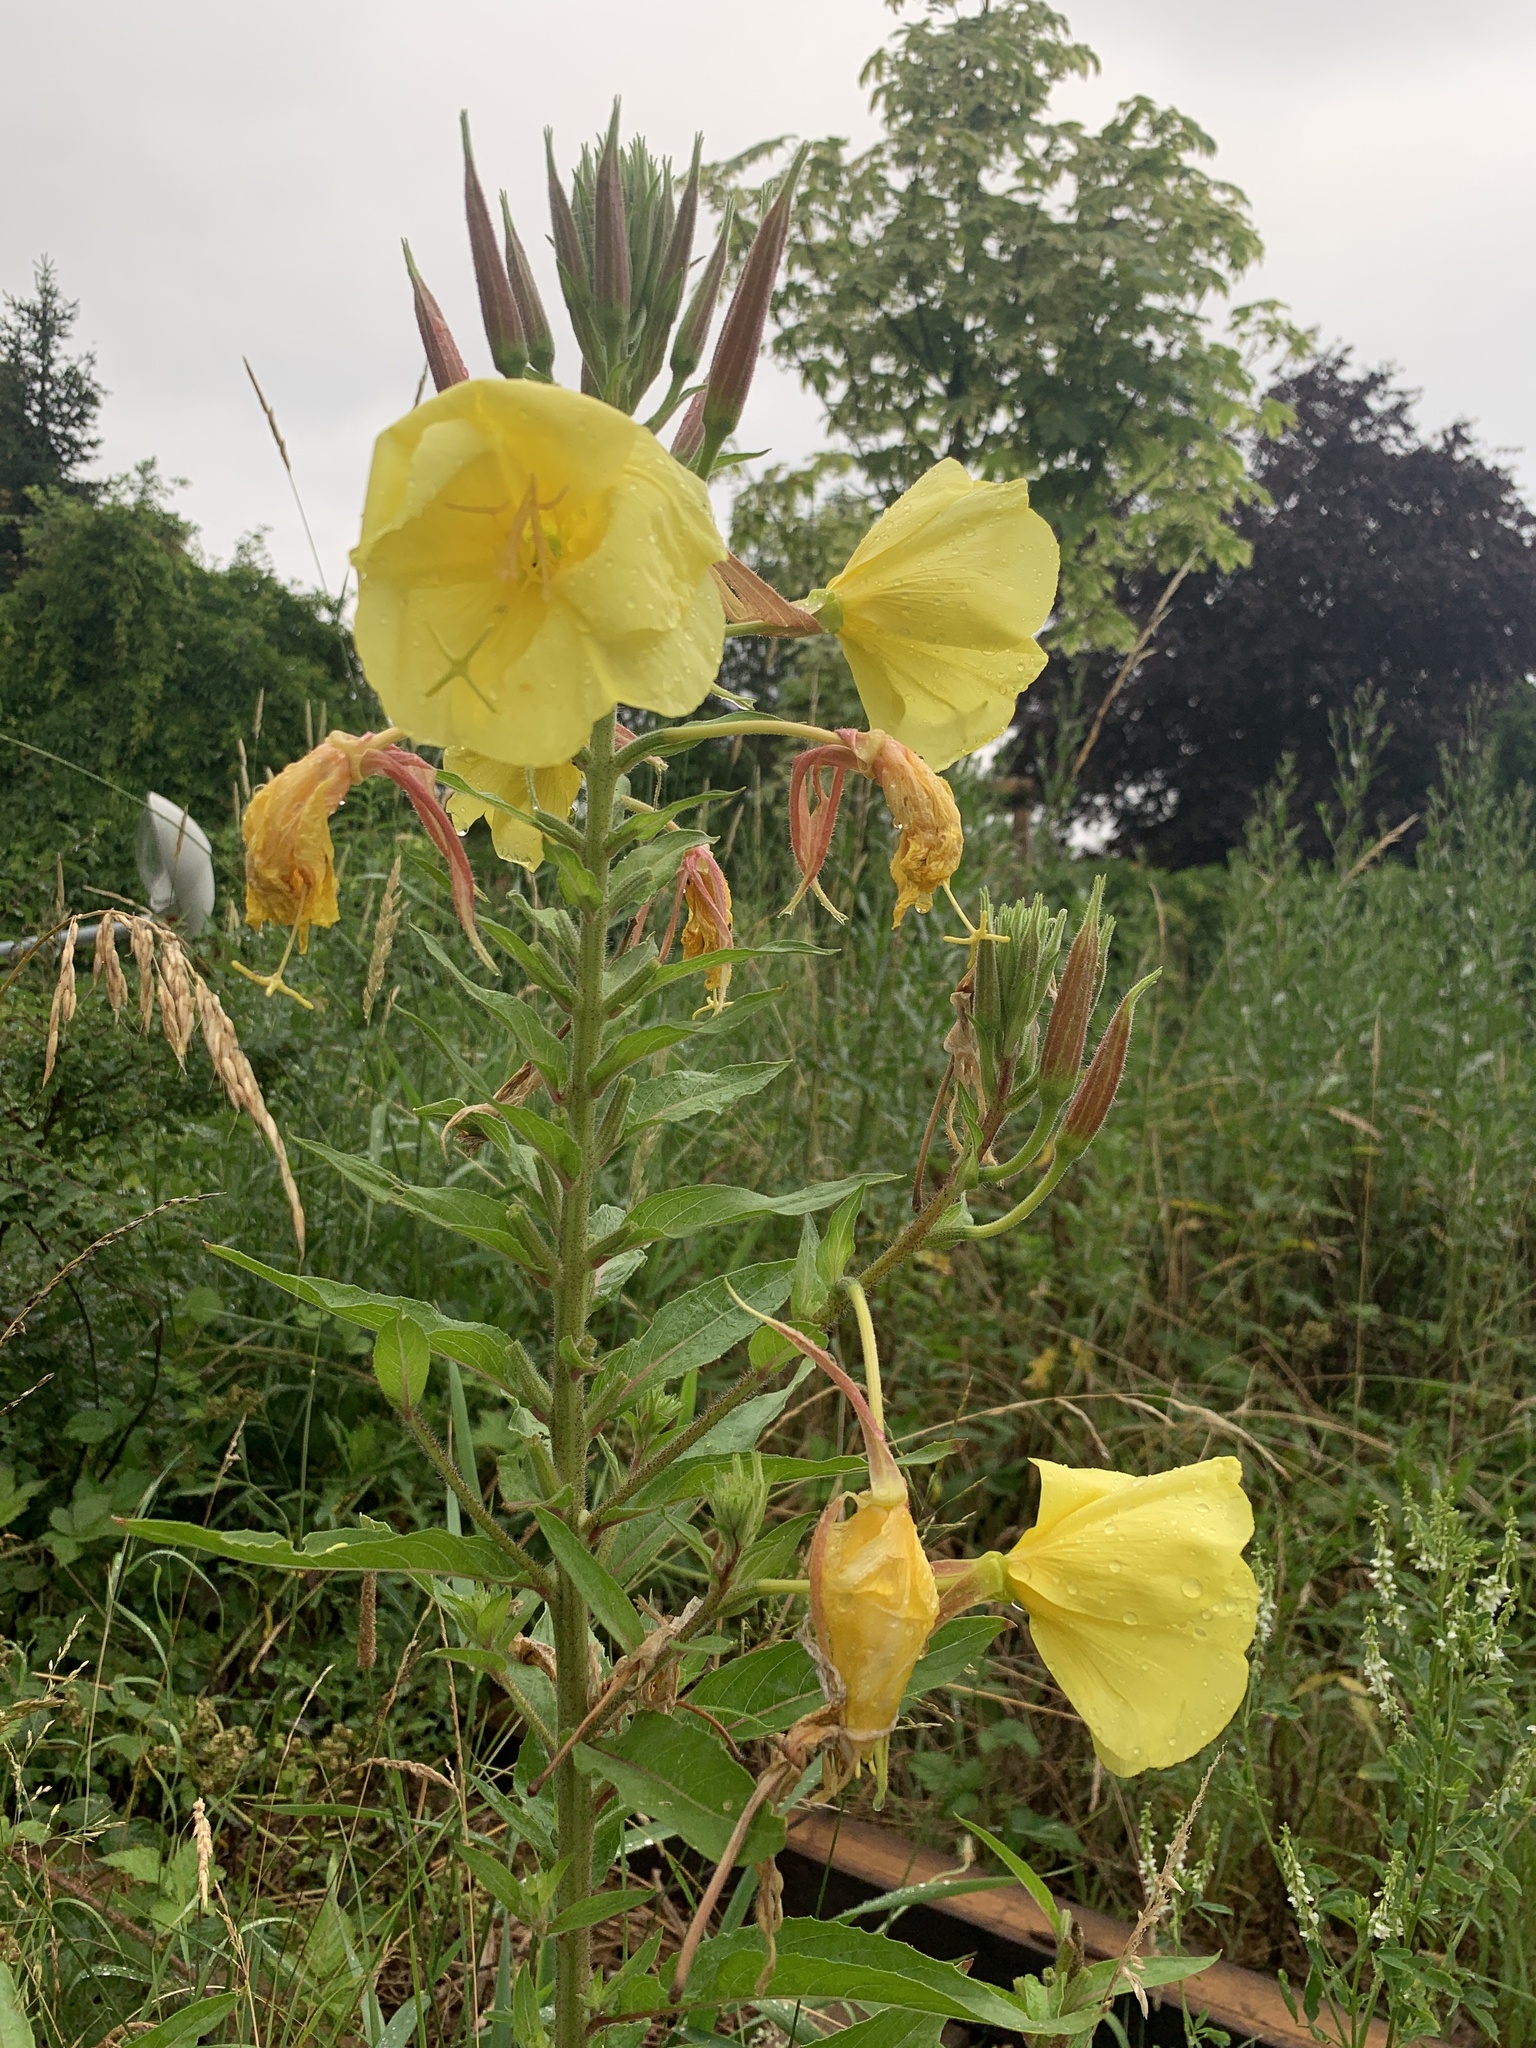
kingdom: Plantae
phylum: Tracheophyta
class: Magnoliopsida
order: Myrtales
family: Onagraceae
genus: Oenothera
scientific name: Oenothera glazioviana
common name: Large-flowered evening-primrose
